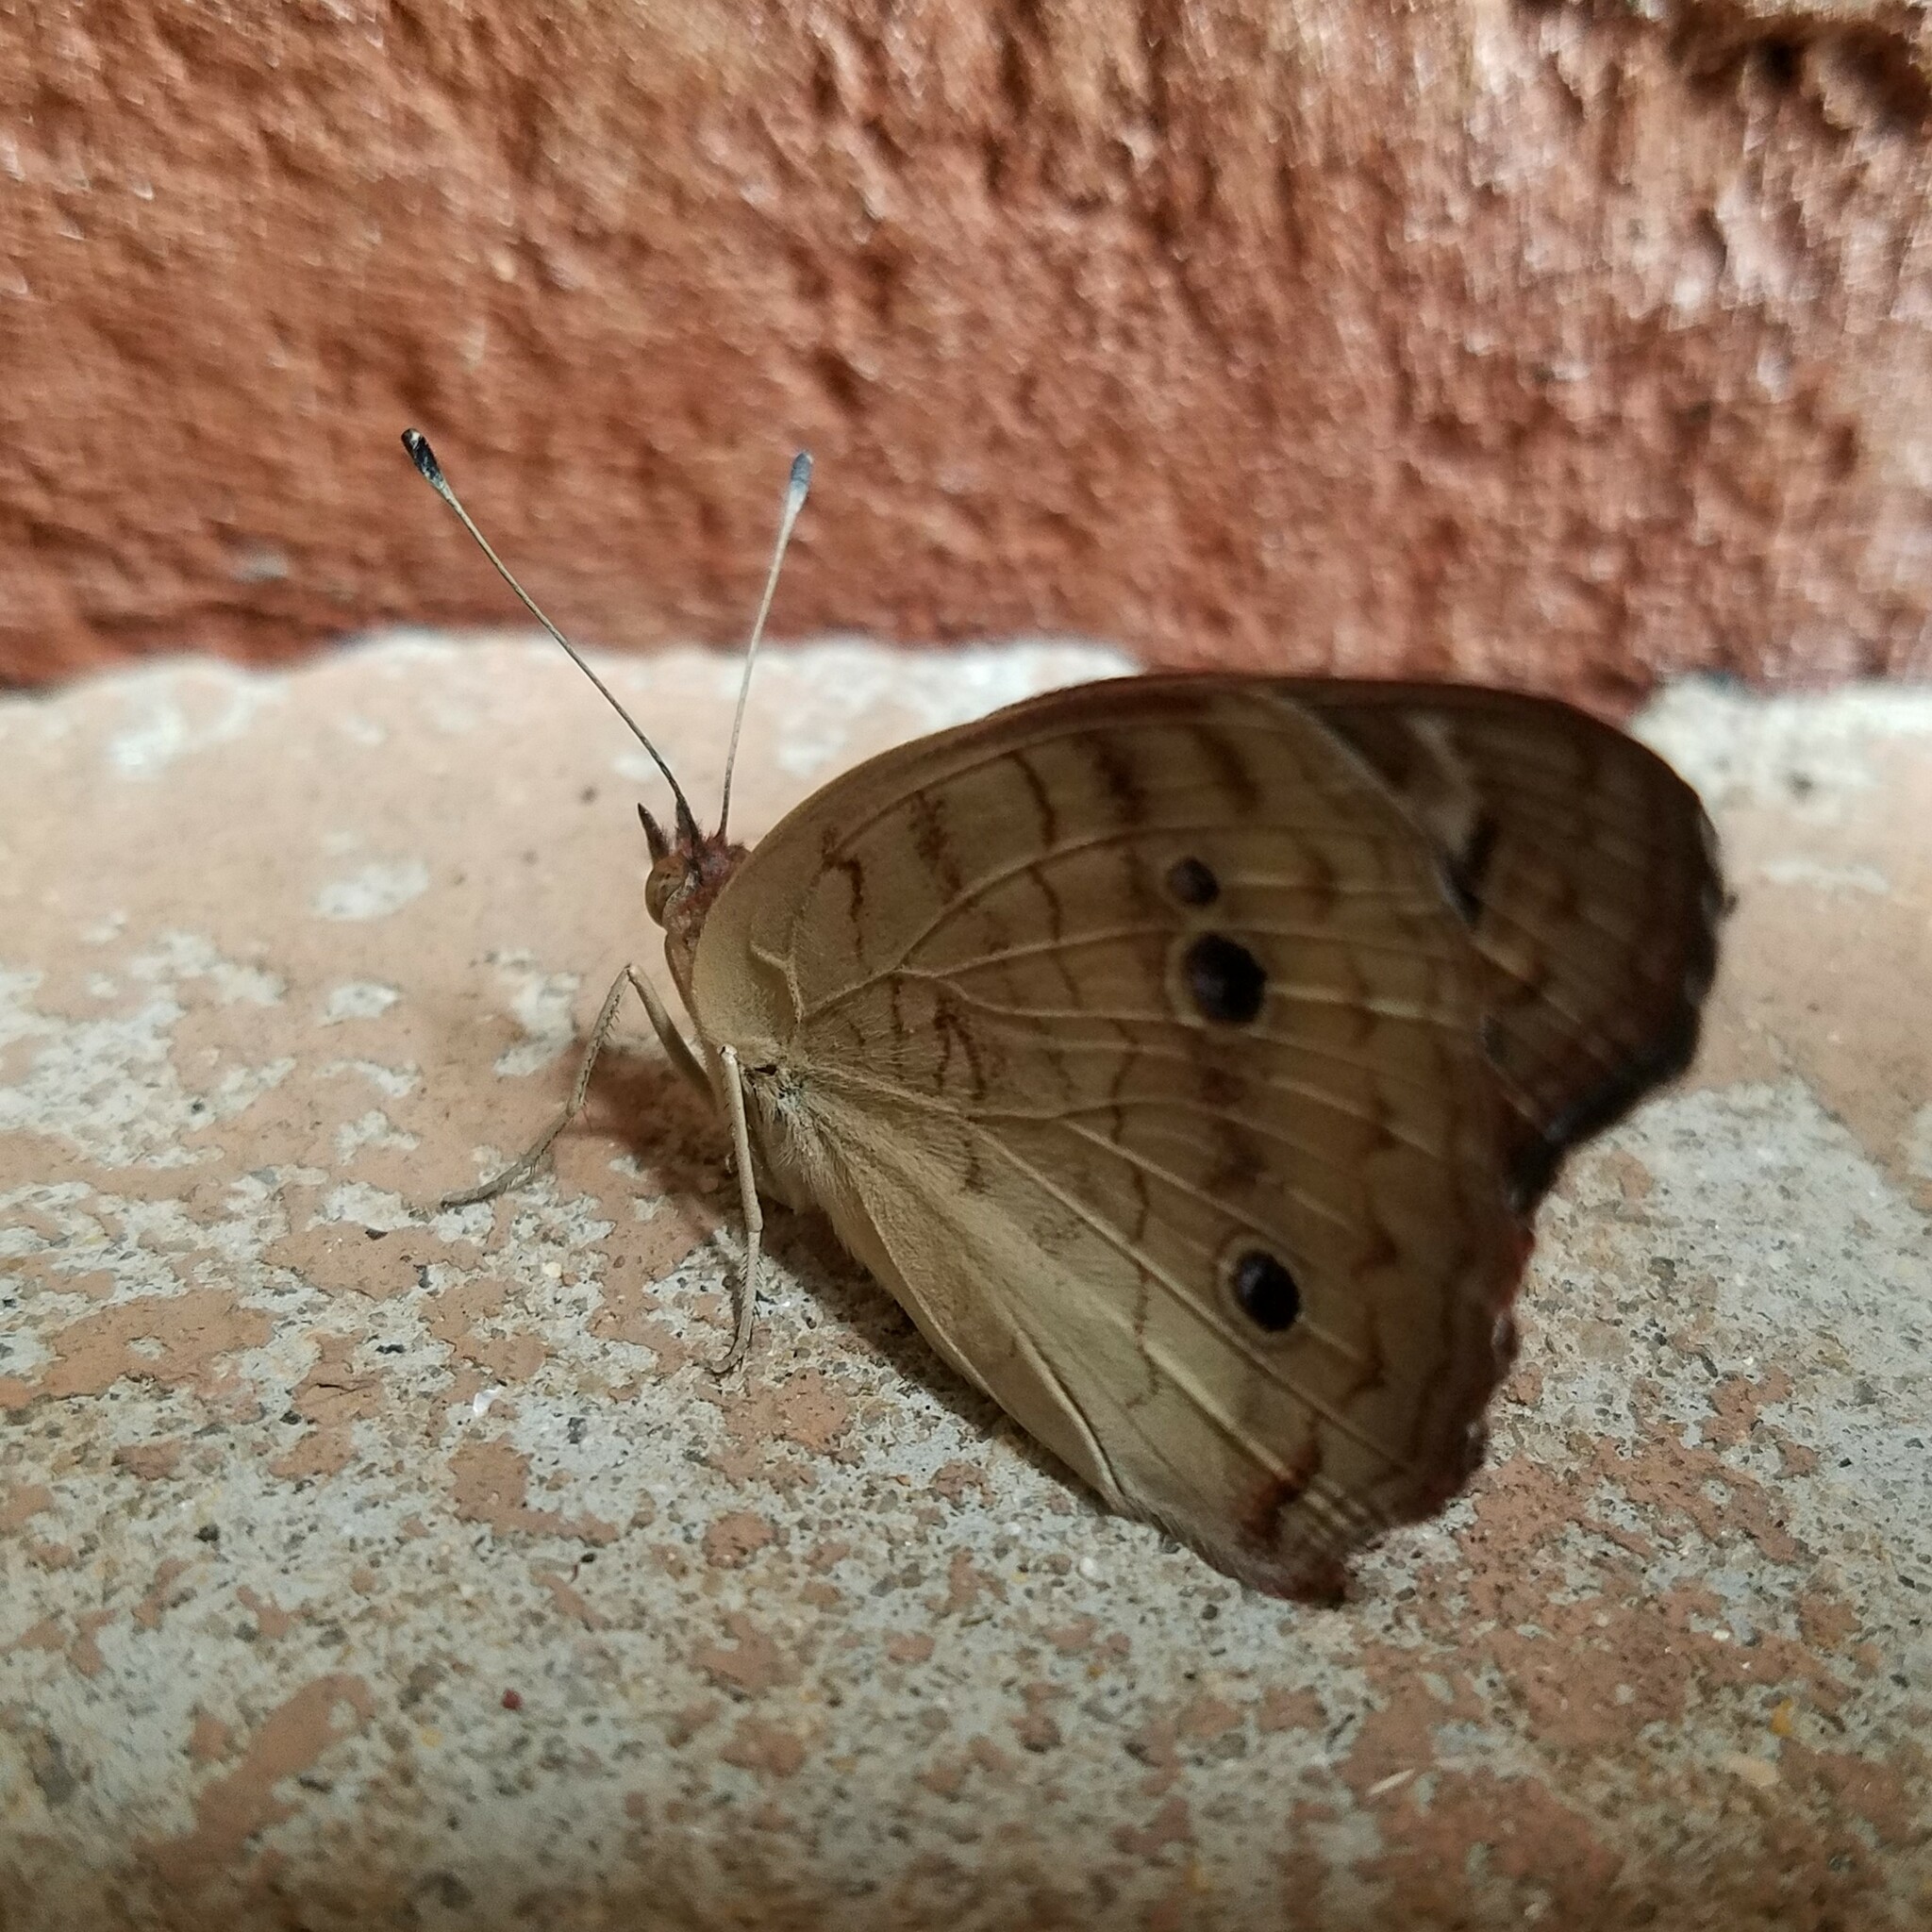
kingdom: Animalia
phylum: Arthropoda
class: Insecta
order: Lepidoptera
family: Nymphalidae
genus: Junonia
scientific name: Junonia coenia
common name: Common buckeye
